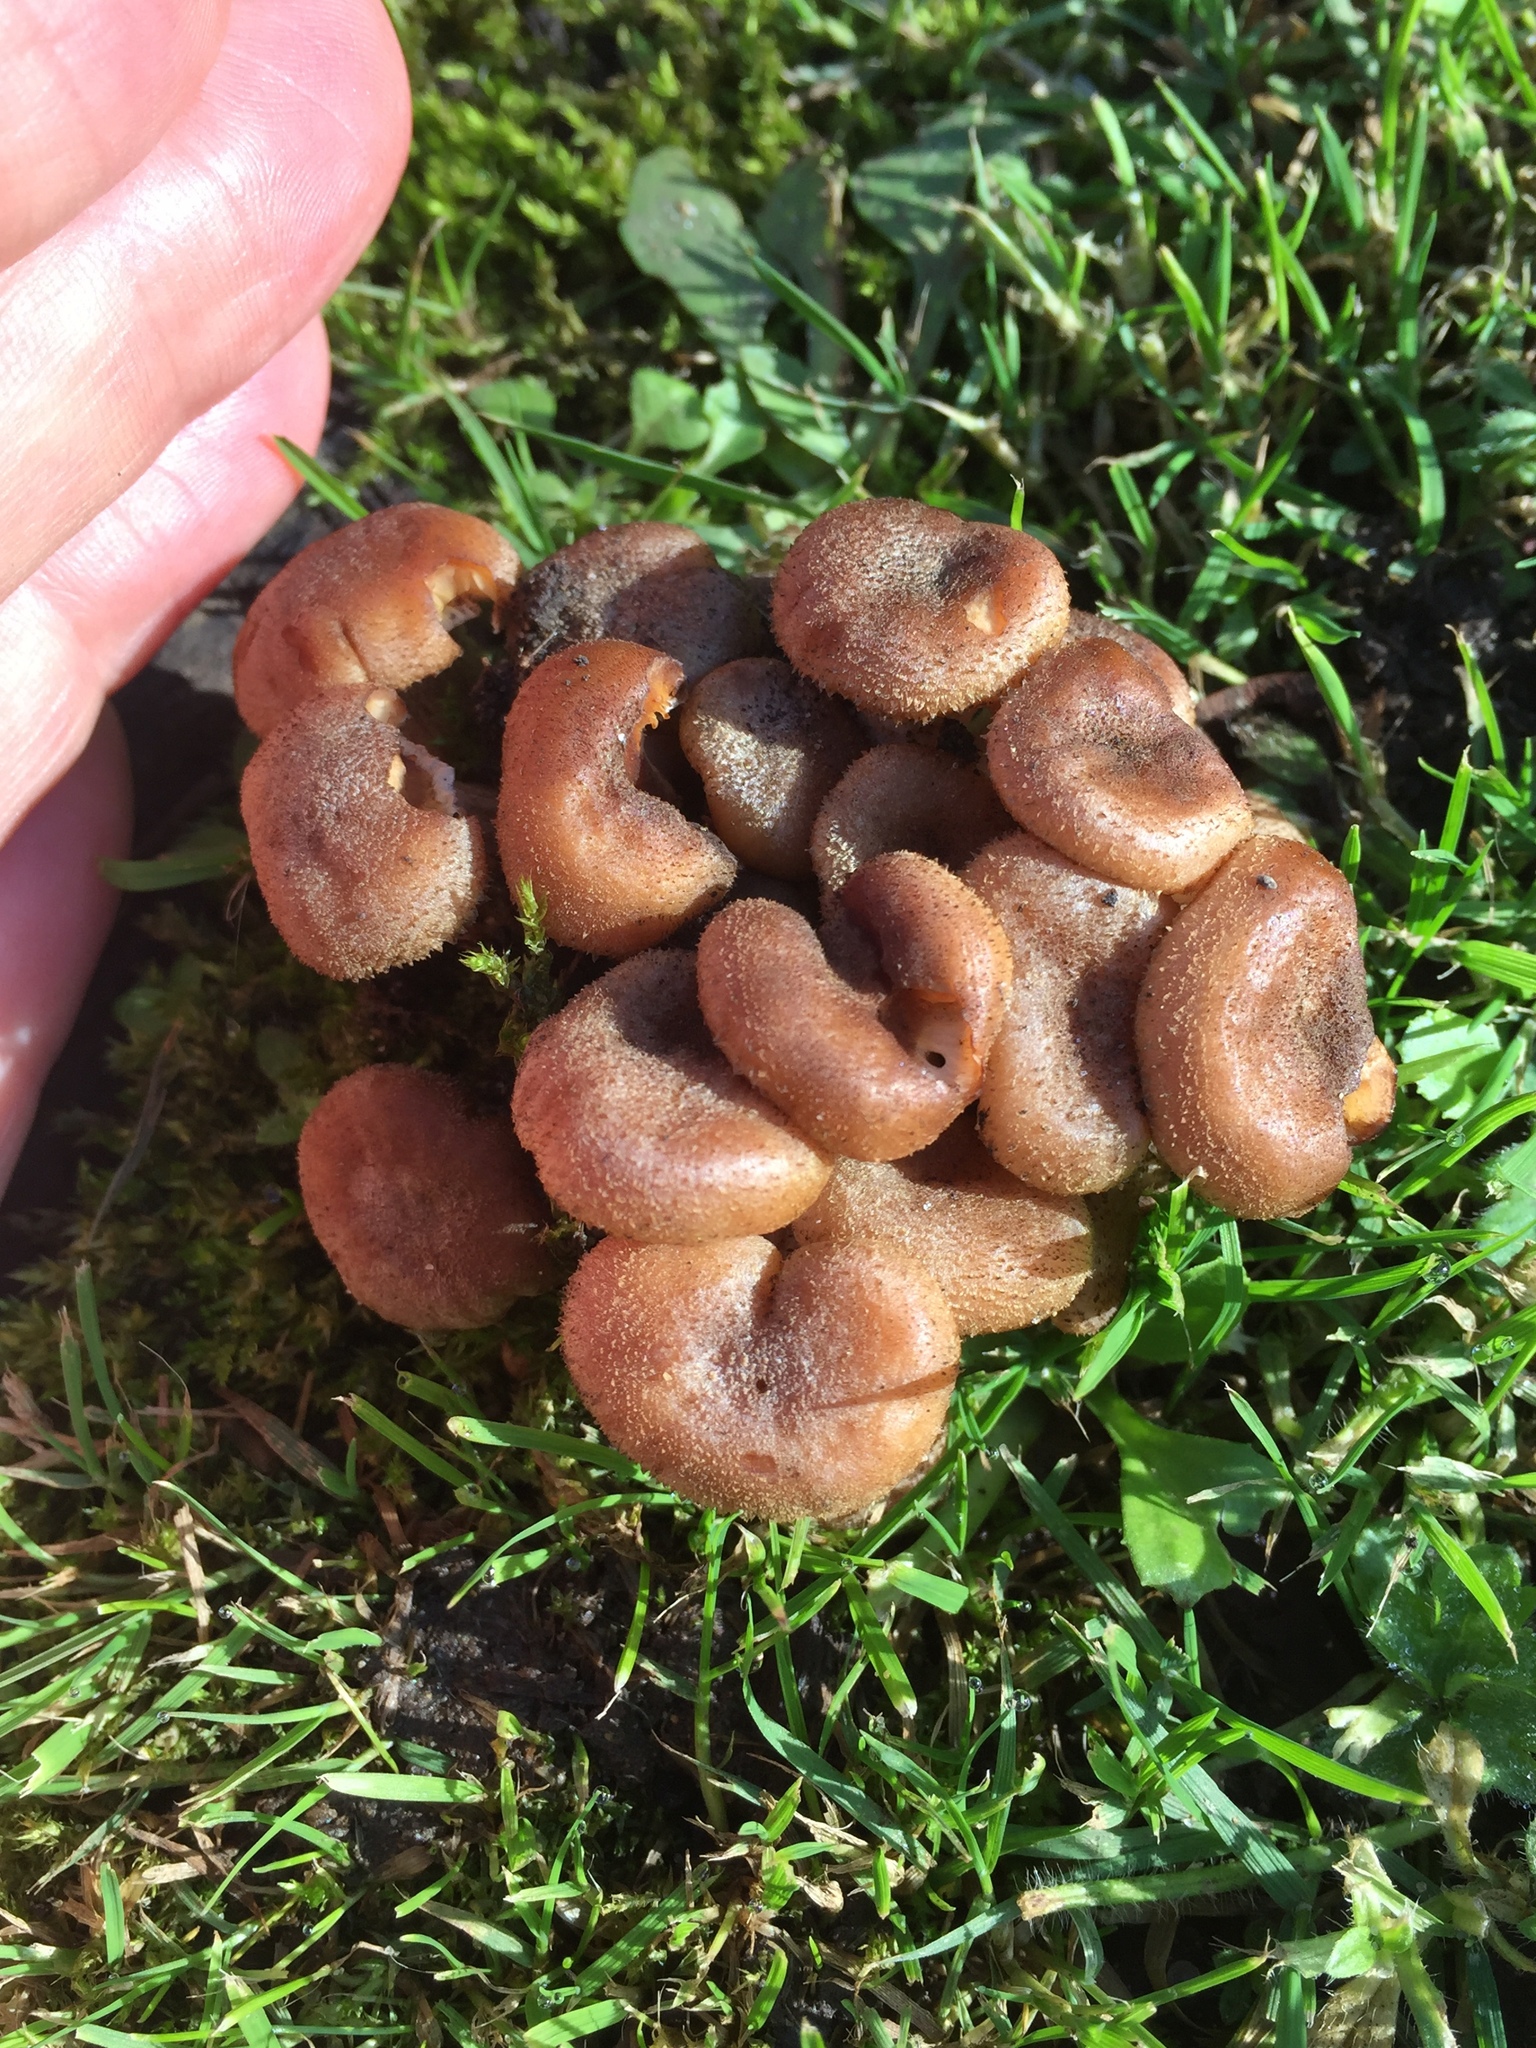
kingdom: Fungi
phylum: Basidiomycota
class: Agaricomycetes
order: Agaricales
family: Physalacriaceae
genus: Armillaria
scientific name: Armillaria mellea
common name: Honey fungus
